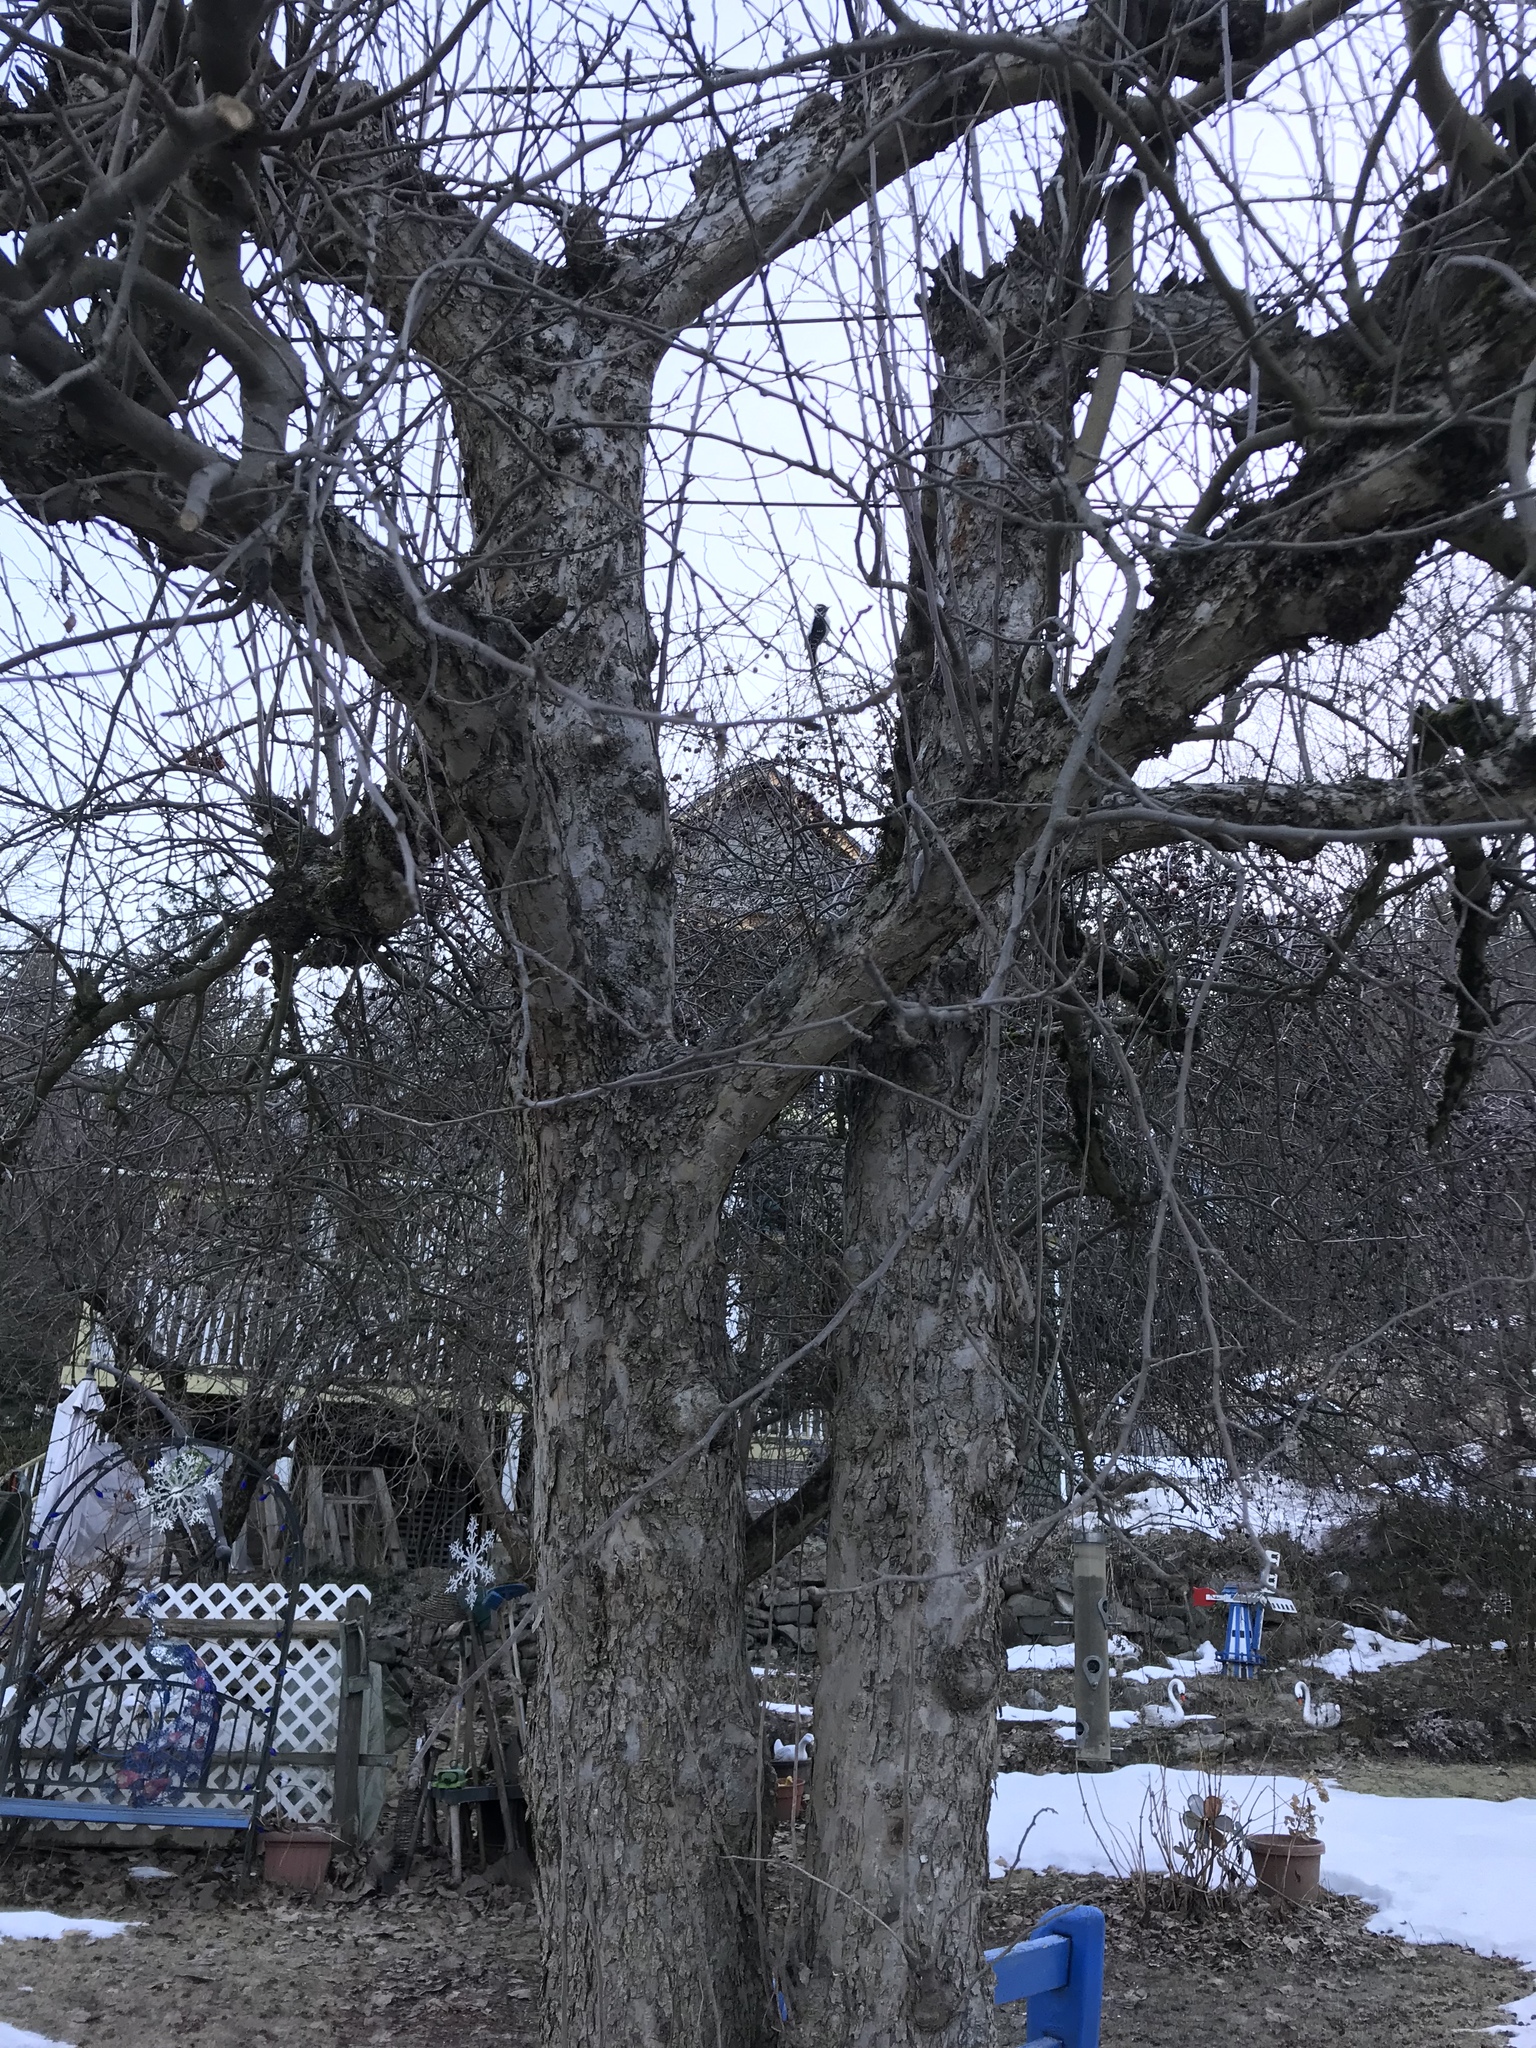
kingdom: Animalia
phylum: Chordata
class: Aves
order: Piciformes
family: Picidae
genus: Dryobates
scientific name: Dryobates pubescens
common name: Downy woodpecker
